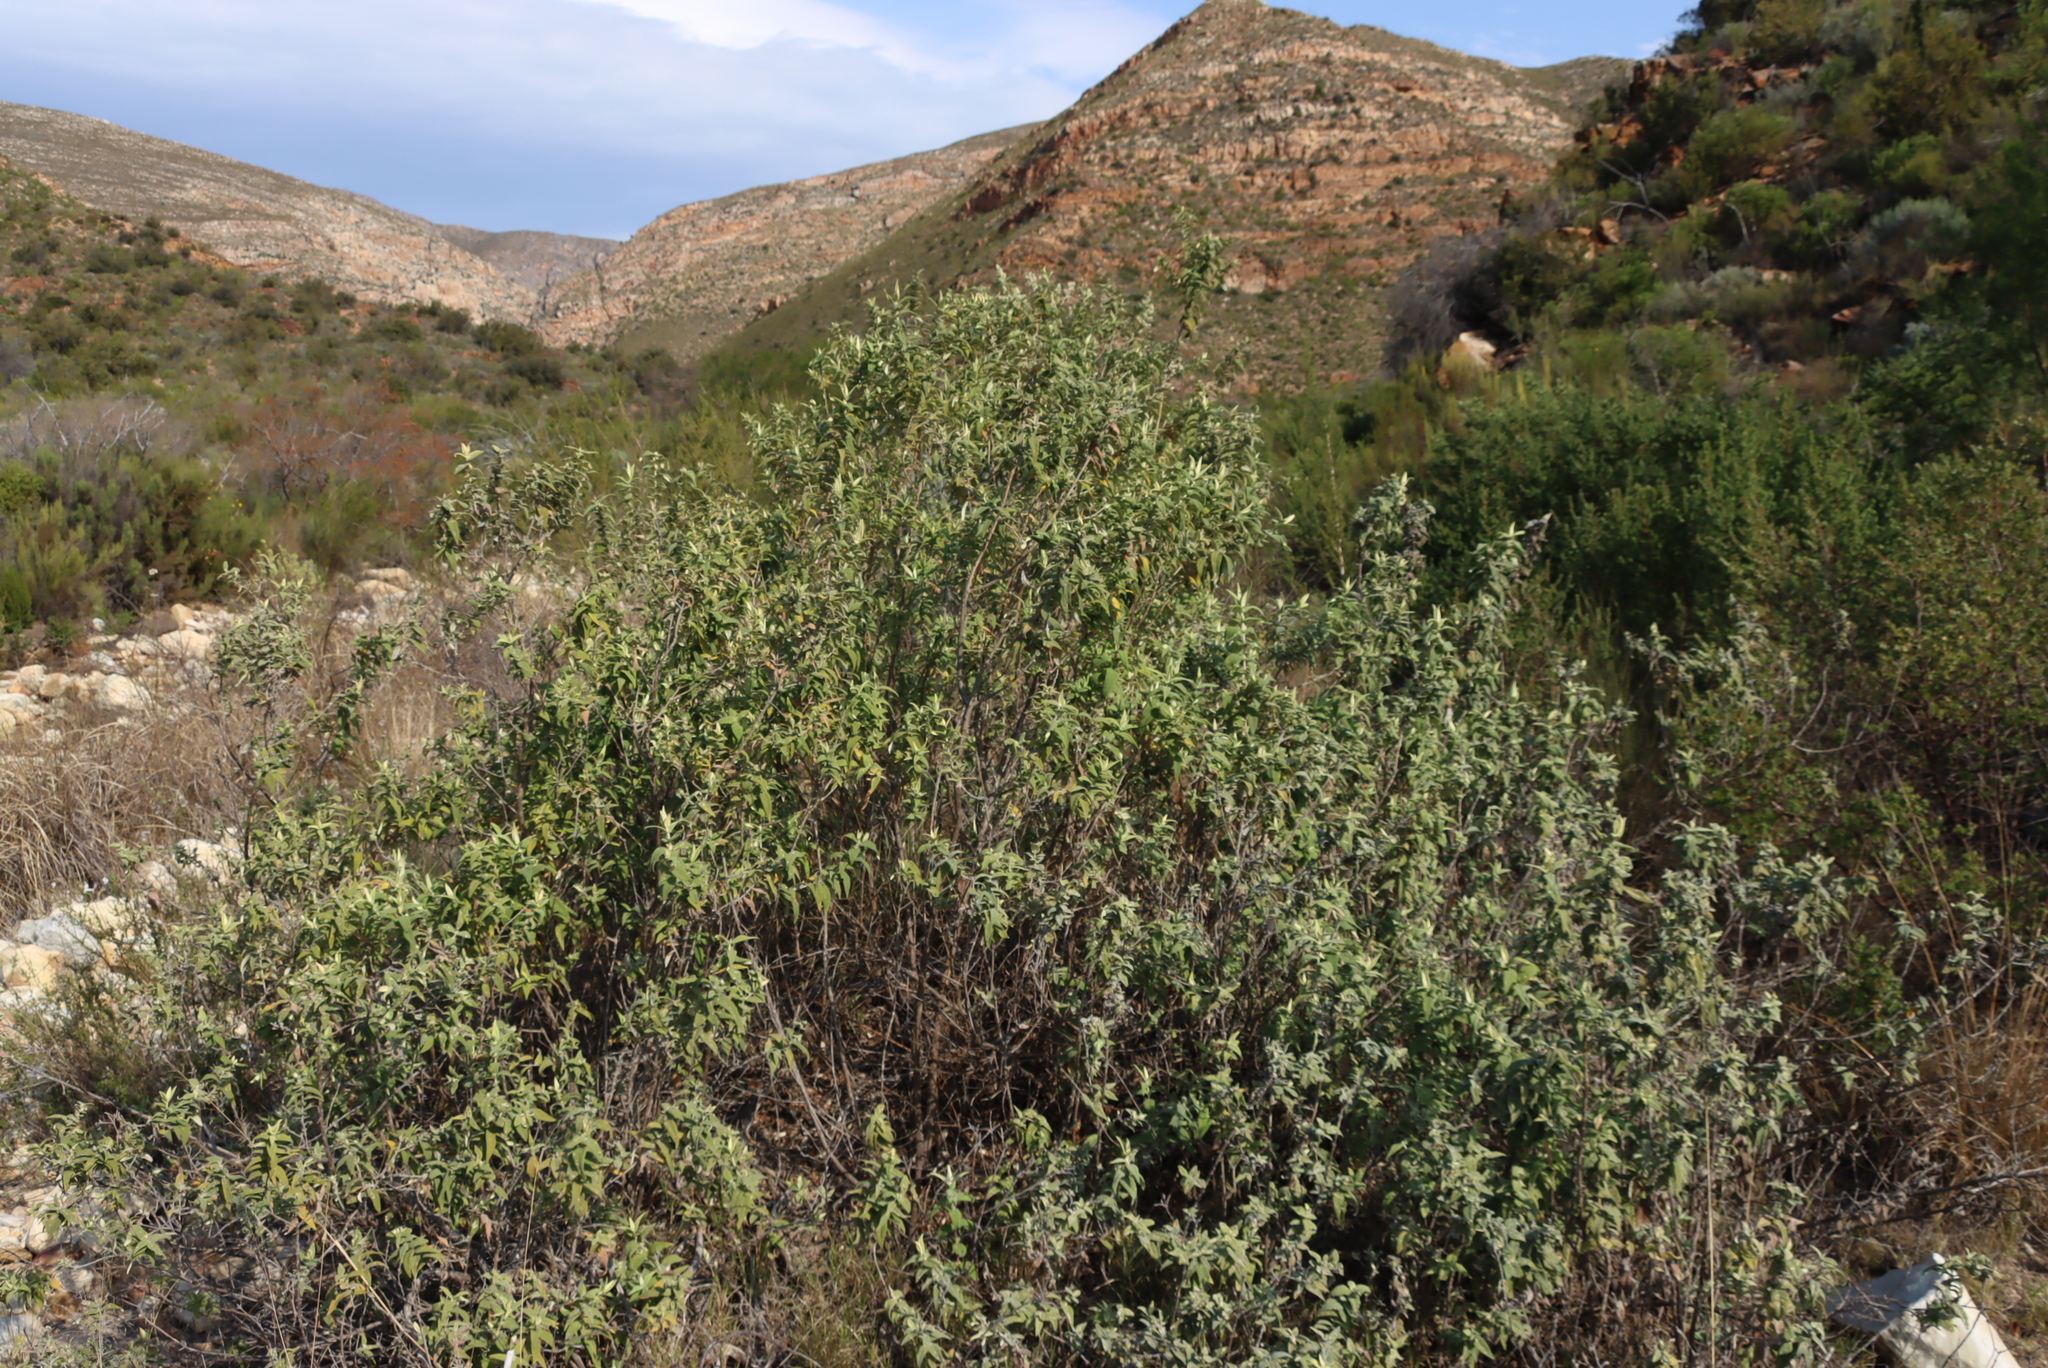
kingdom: Plantae
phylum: Tracheophyta
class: Magnoliopsida
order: Lamiales
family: Scrophulariaceae
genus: Buddleja
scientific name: Buddleja salviifolia
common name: Sagewood
